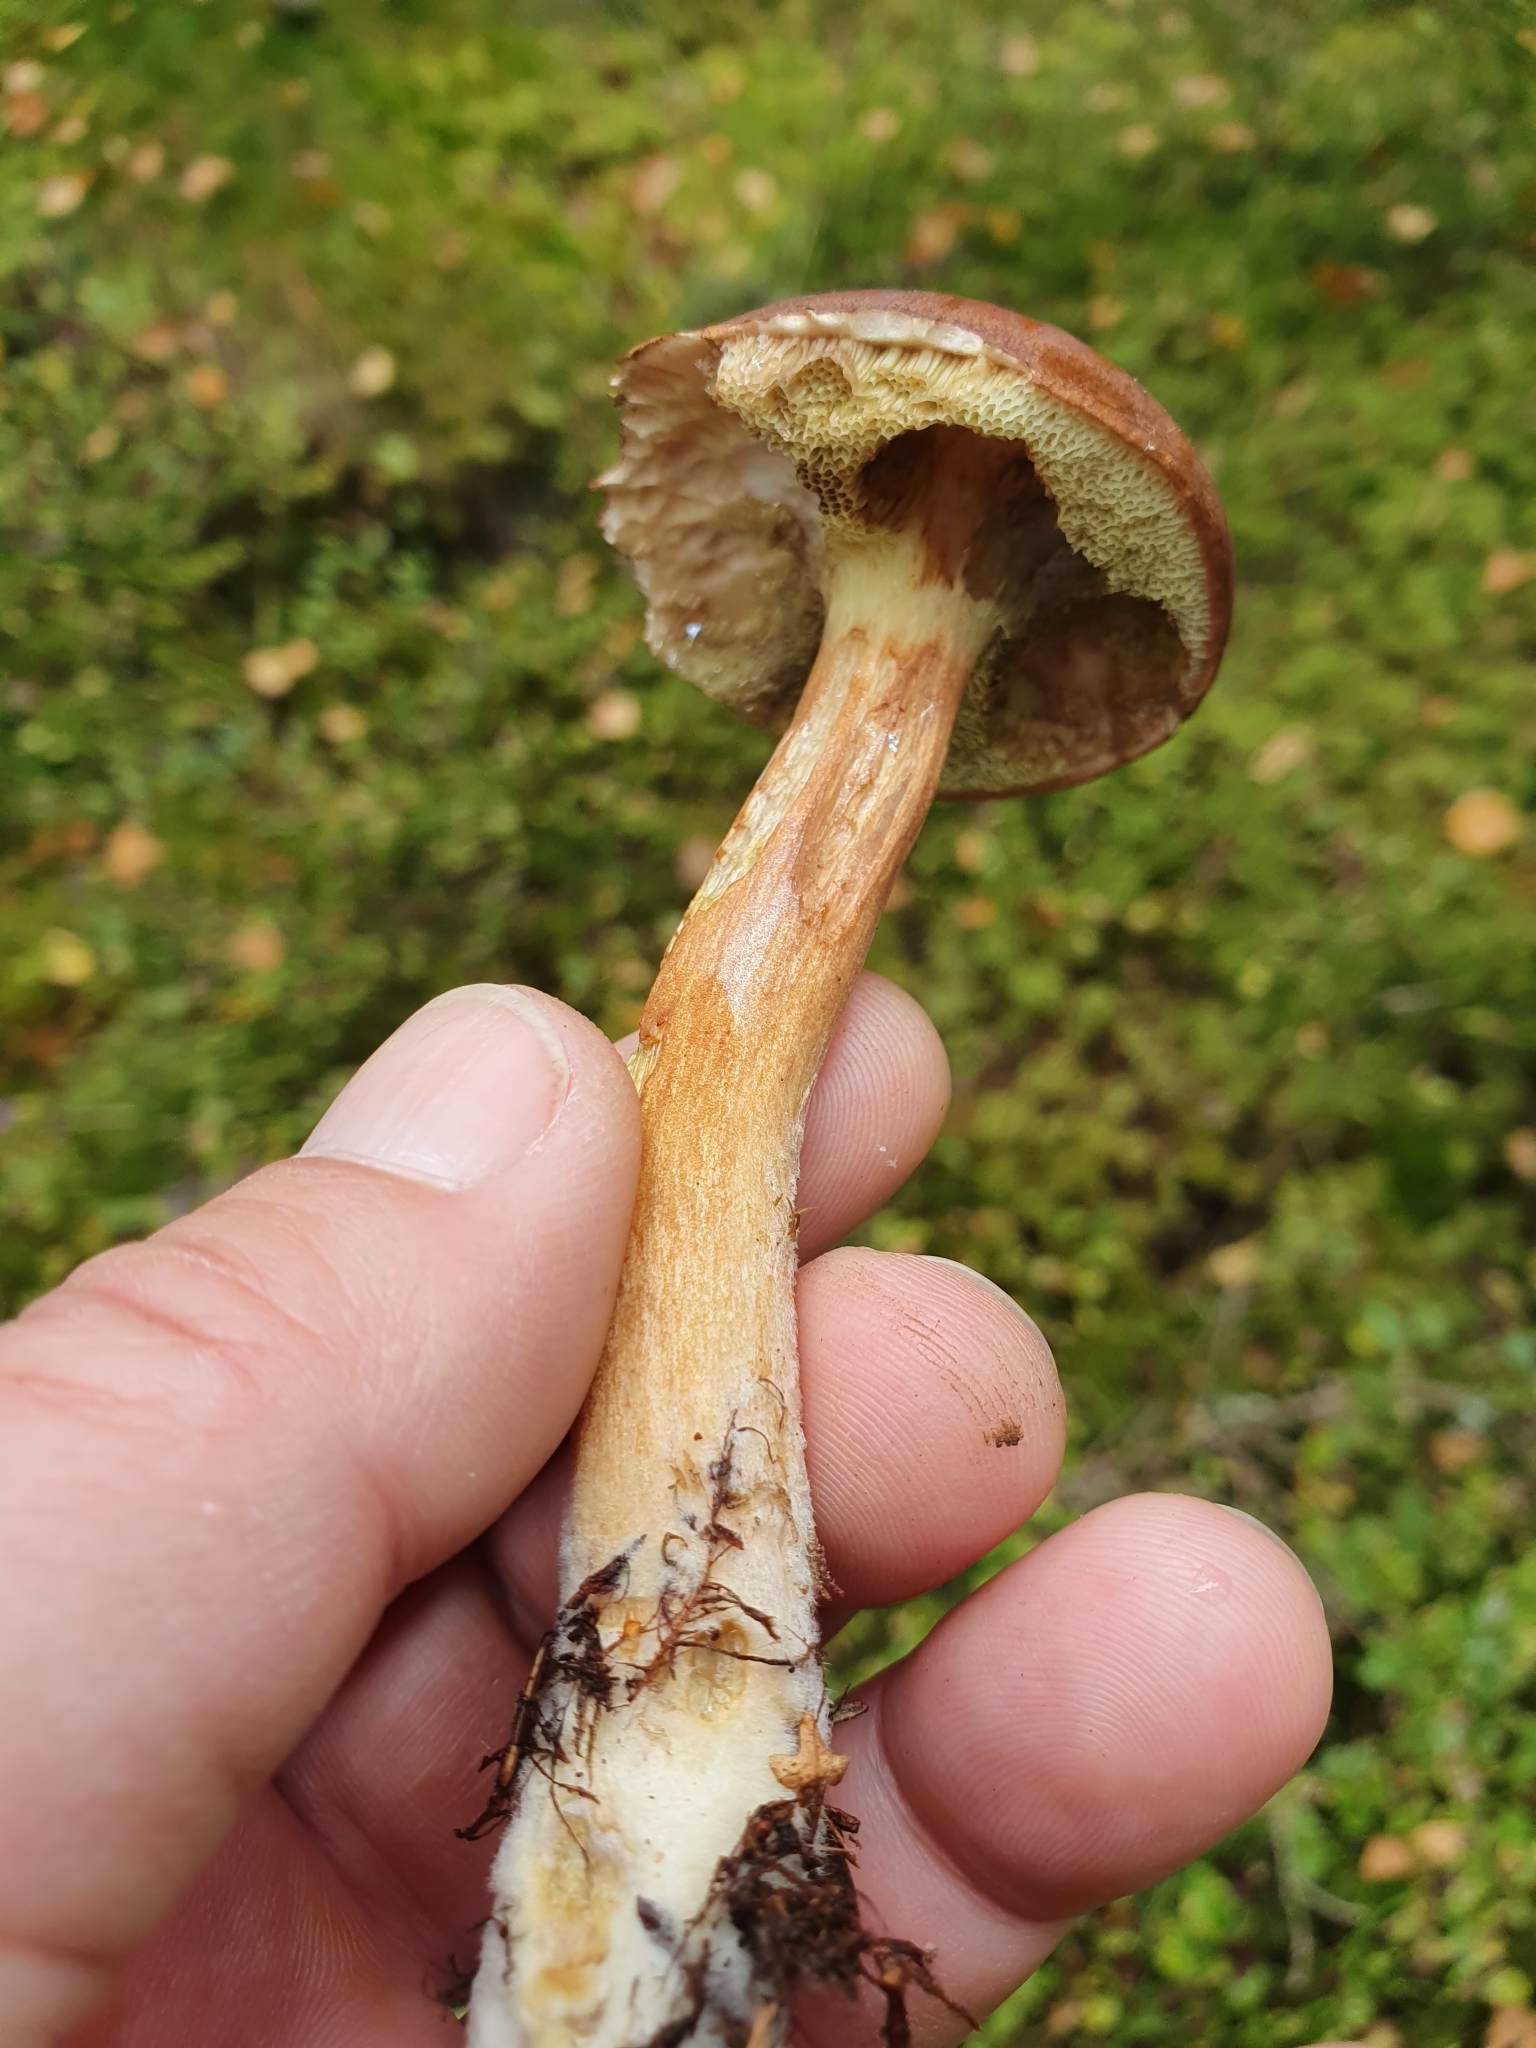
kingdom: Fungi
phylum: Basidiomycota
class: Agaricomycetes
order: Boletales
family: Boletaceae
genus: Imleria
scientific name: Imleria badia
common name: Bay bolete
